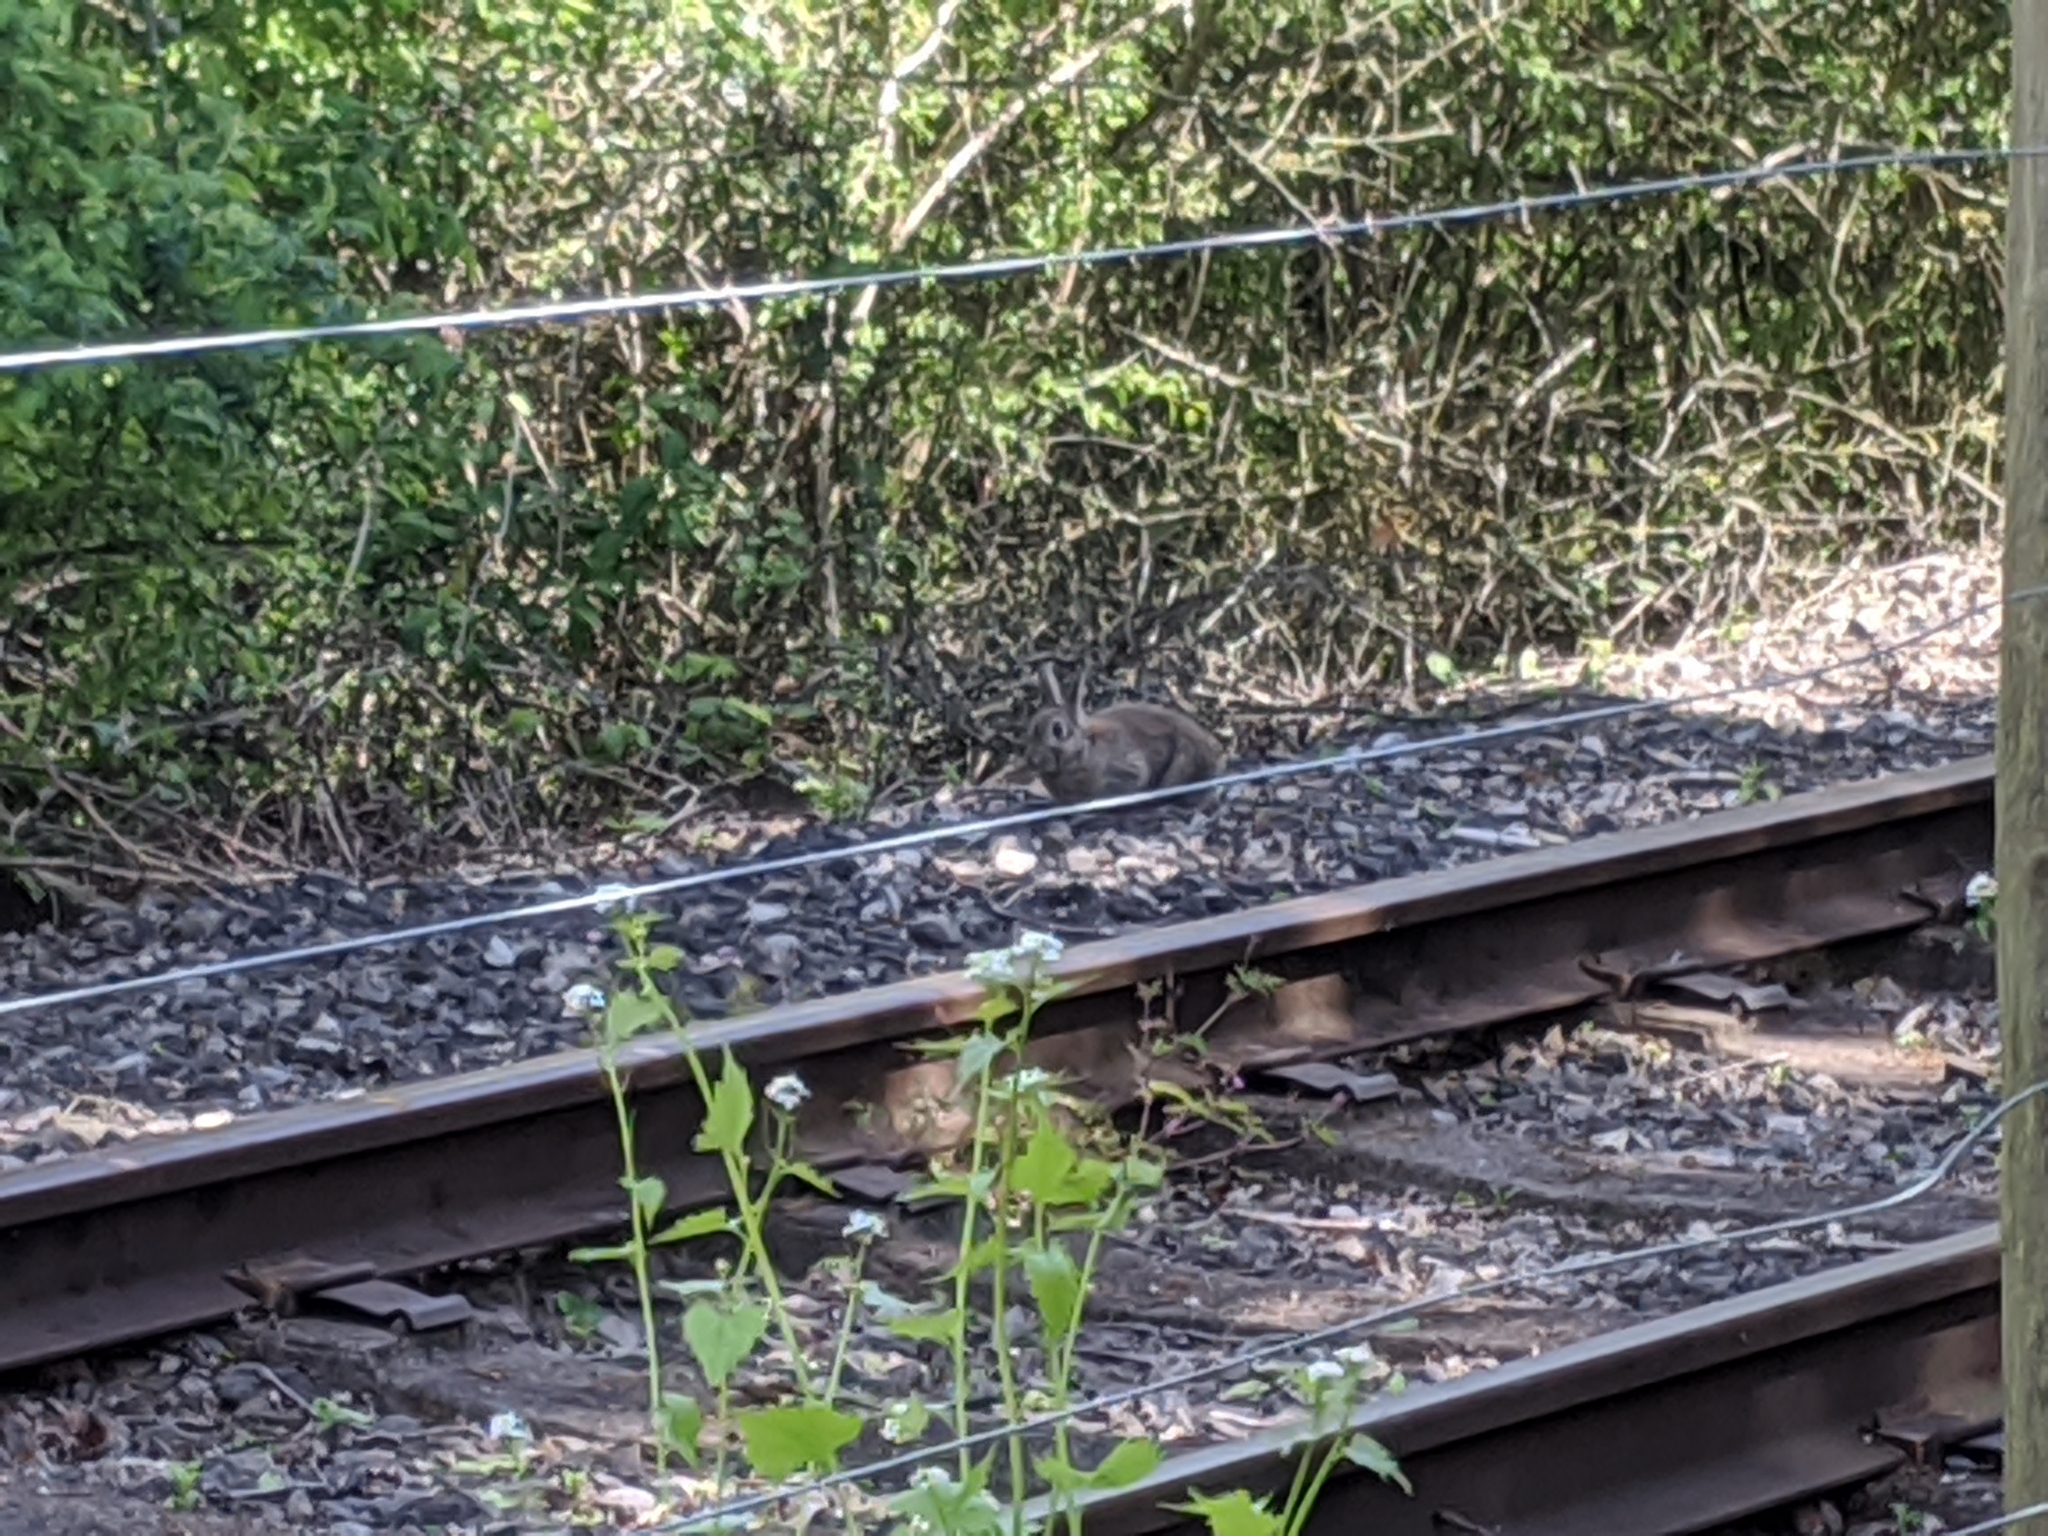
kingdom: Animalia
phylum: Chordata
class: Mammalia
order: Lagomorpha
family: Leporidae
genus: Oryctolagus
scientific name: Oryctolagus cuniculus
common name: European rabbit
